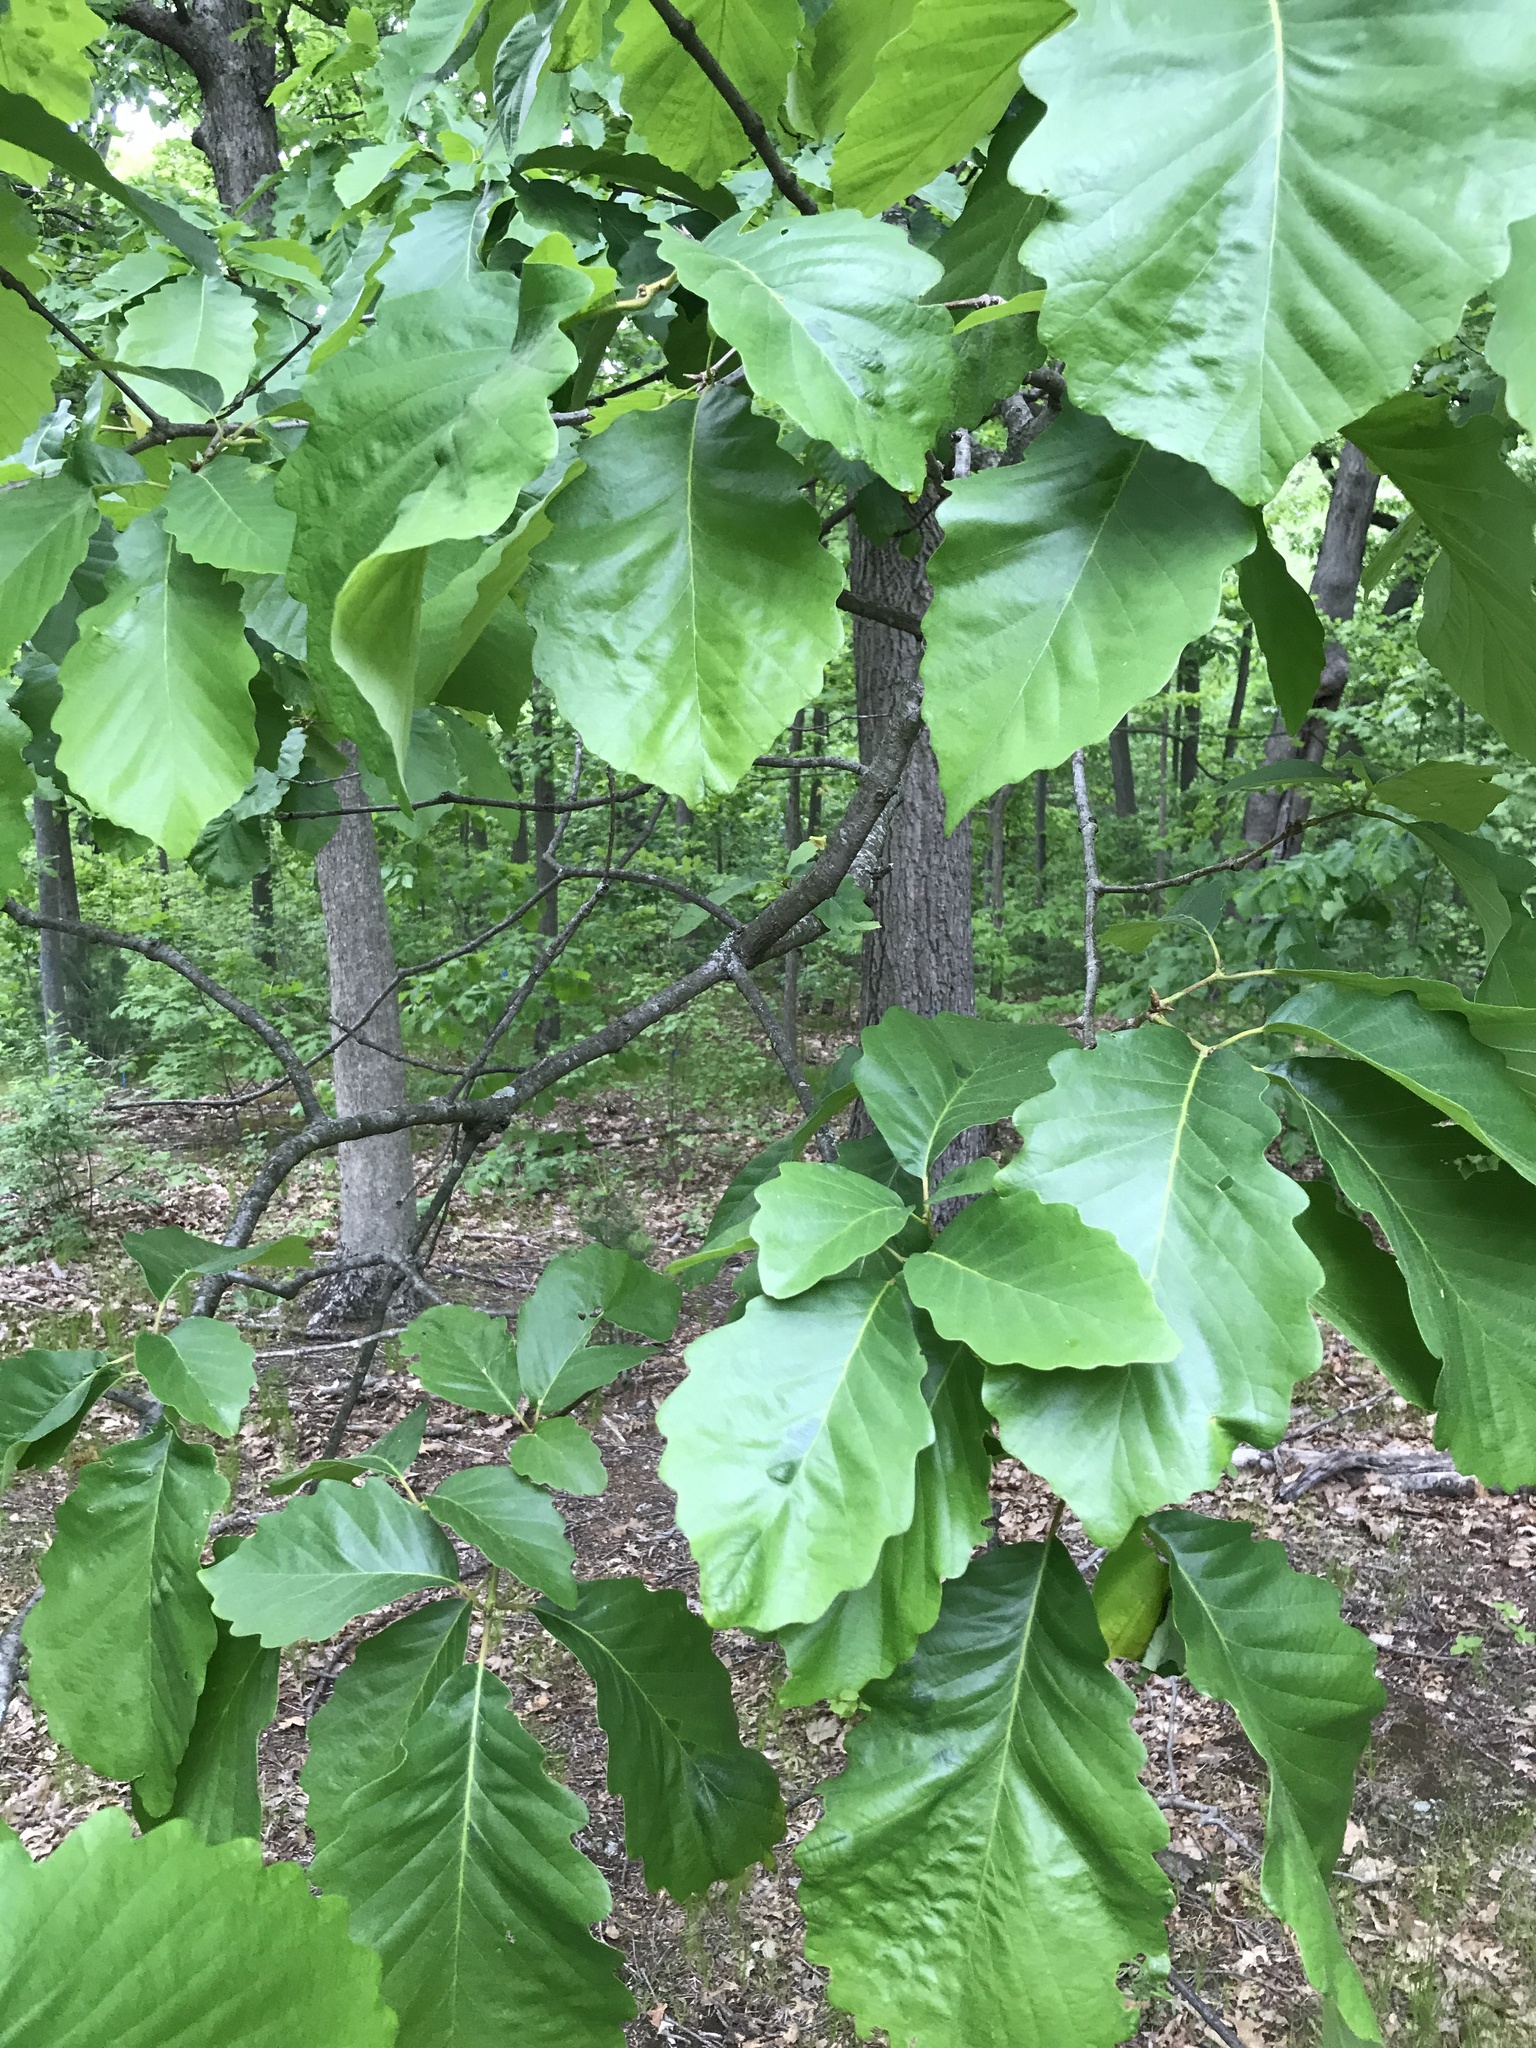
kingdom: Plantae
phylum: Tracheophyta
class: Magnoliopsida
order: Fagales
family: Fagaceae
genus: Quercus
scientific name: Quercus montana
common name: Chestnut oak
